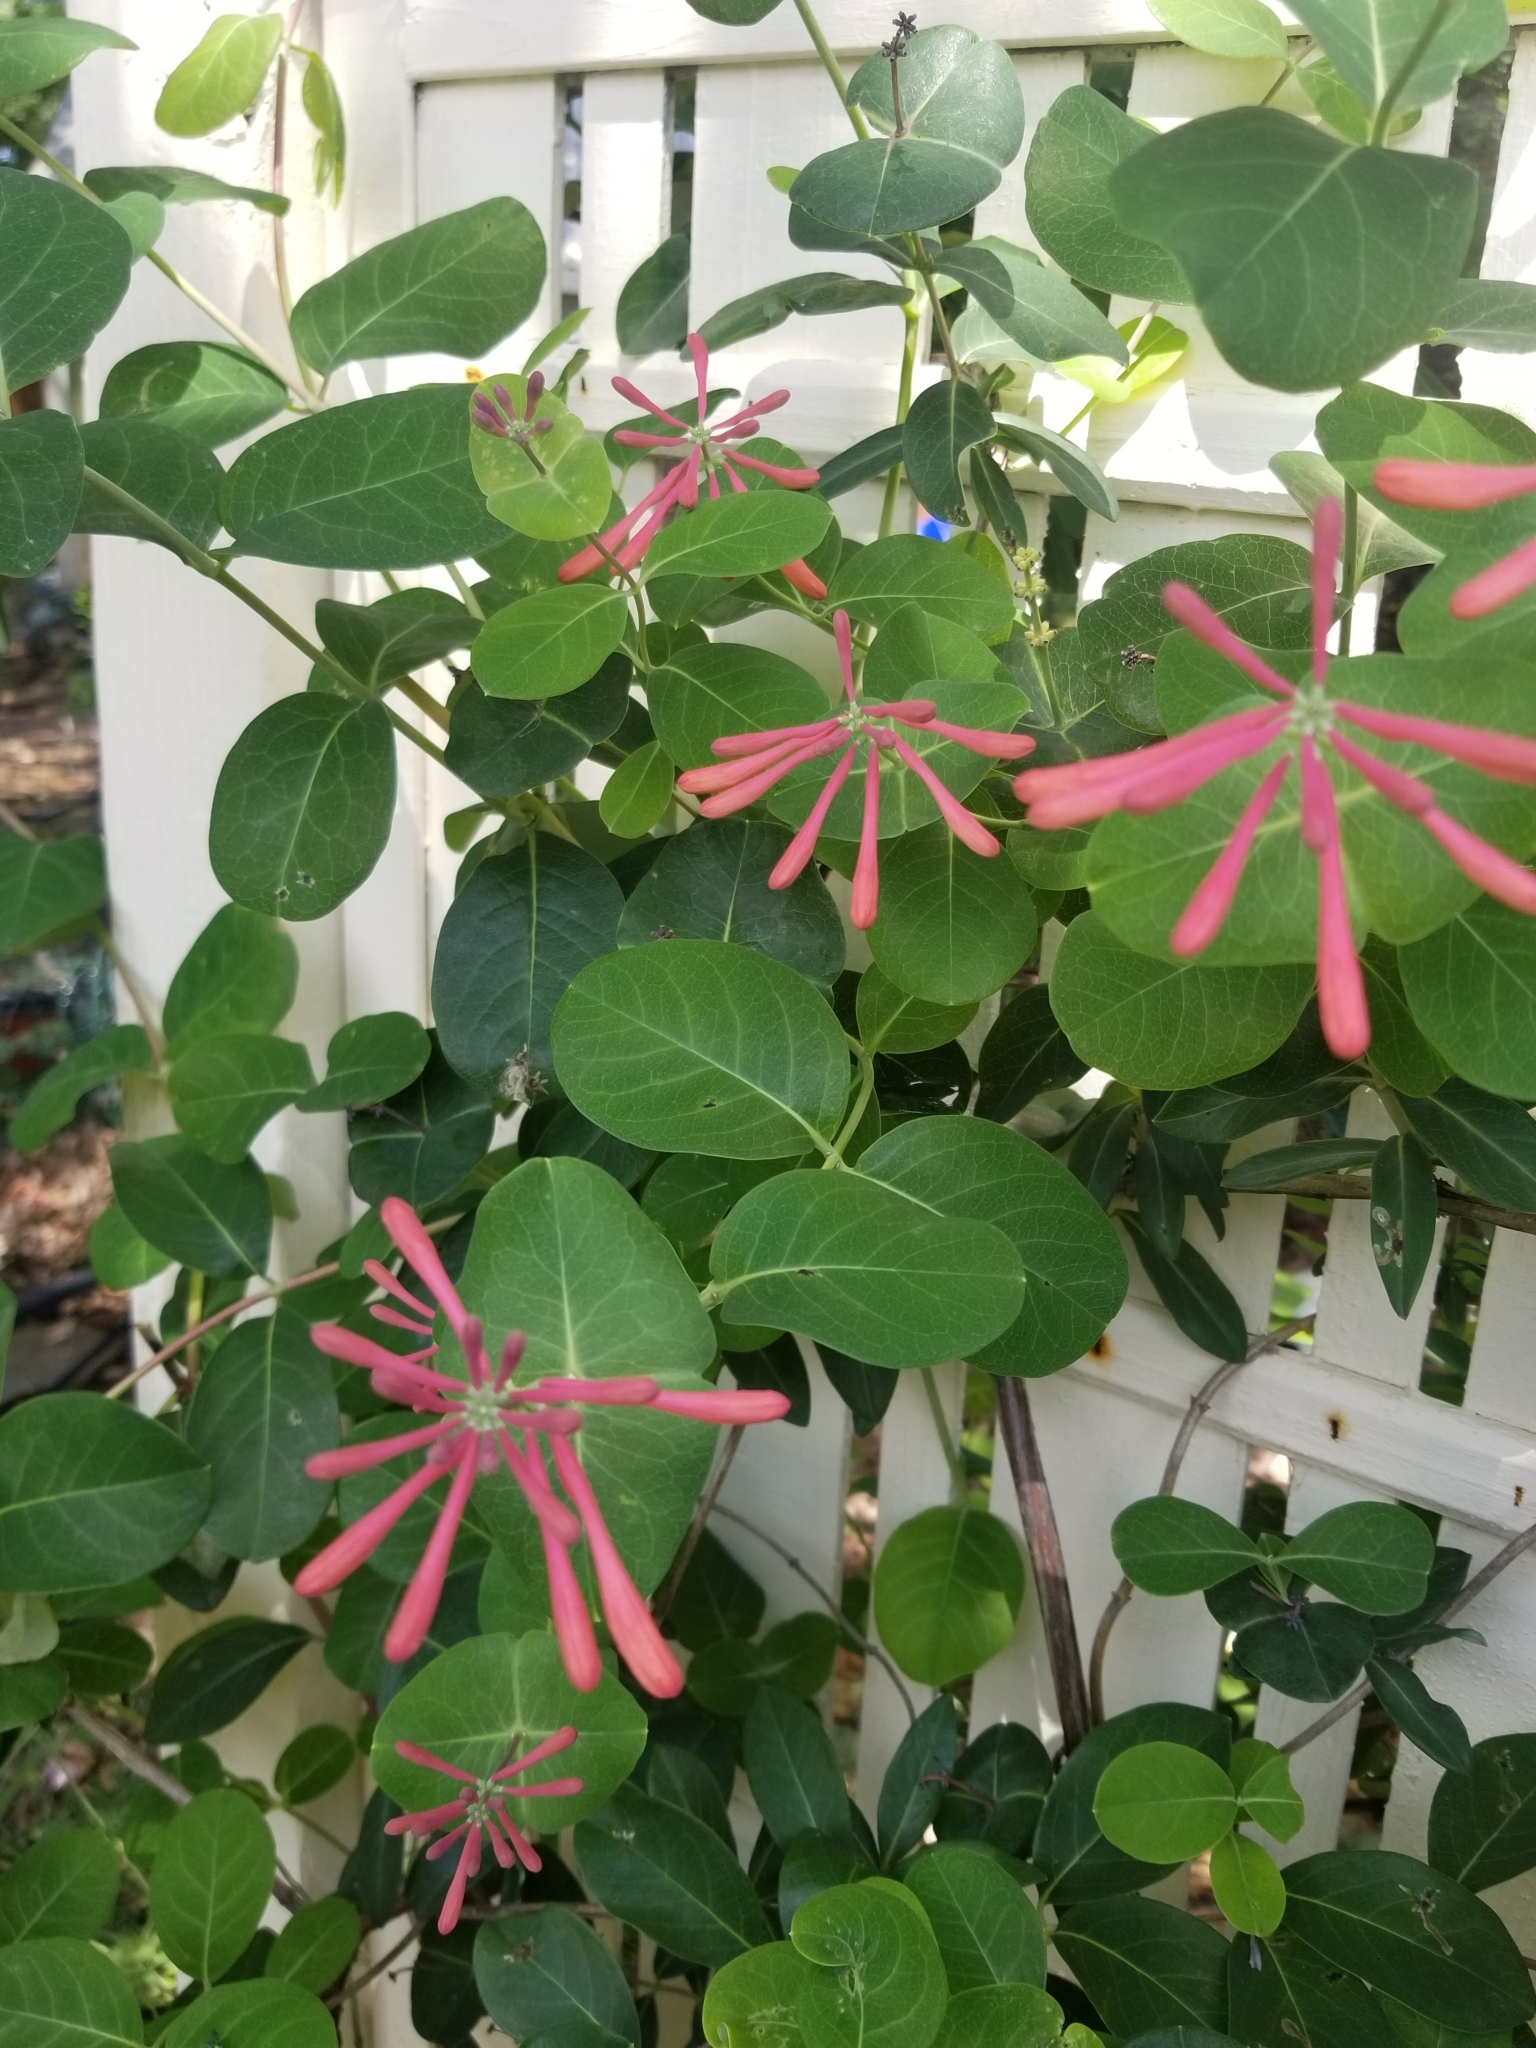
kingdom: Plantae
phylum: Tracheophyta
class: Magnoliopsida
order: Dipsacales
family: Caprifoliaceae
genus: Lonicera
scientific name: Lonicera sempervirens
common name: Coral honeysuckle
